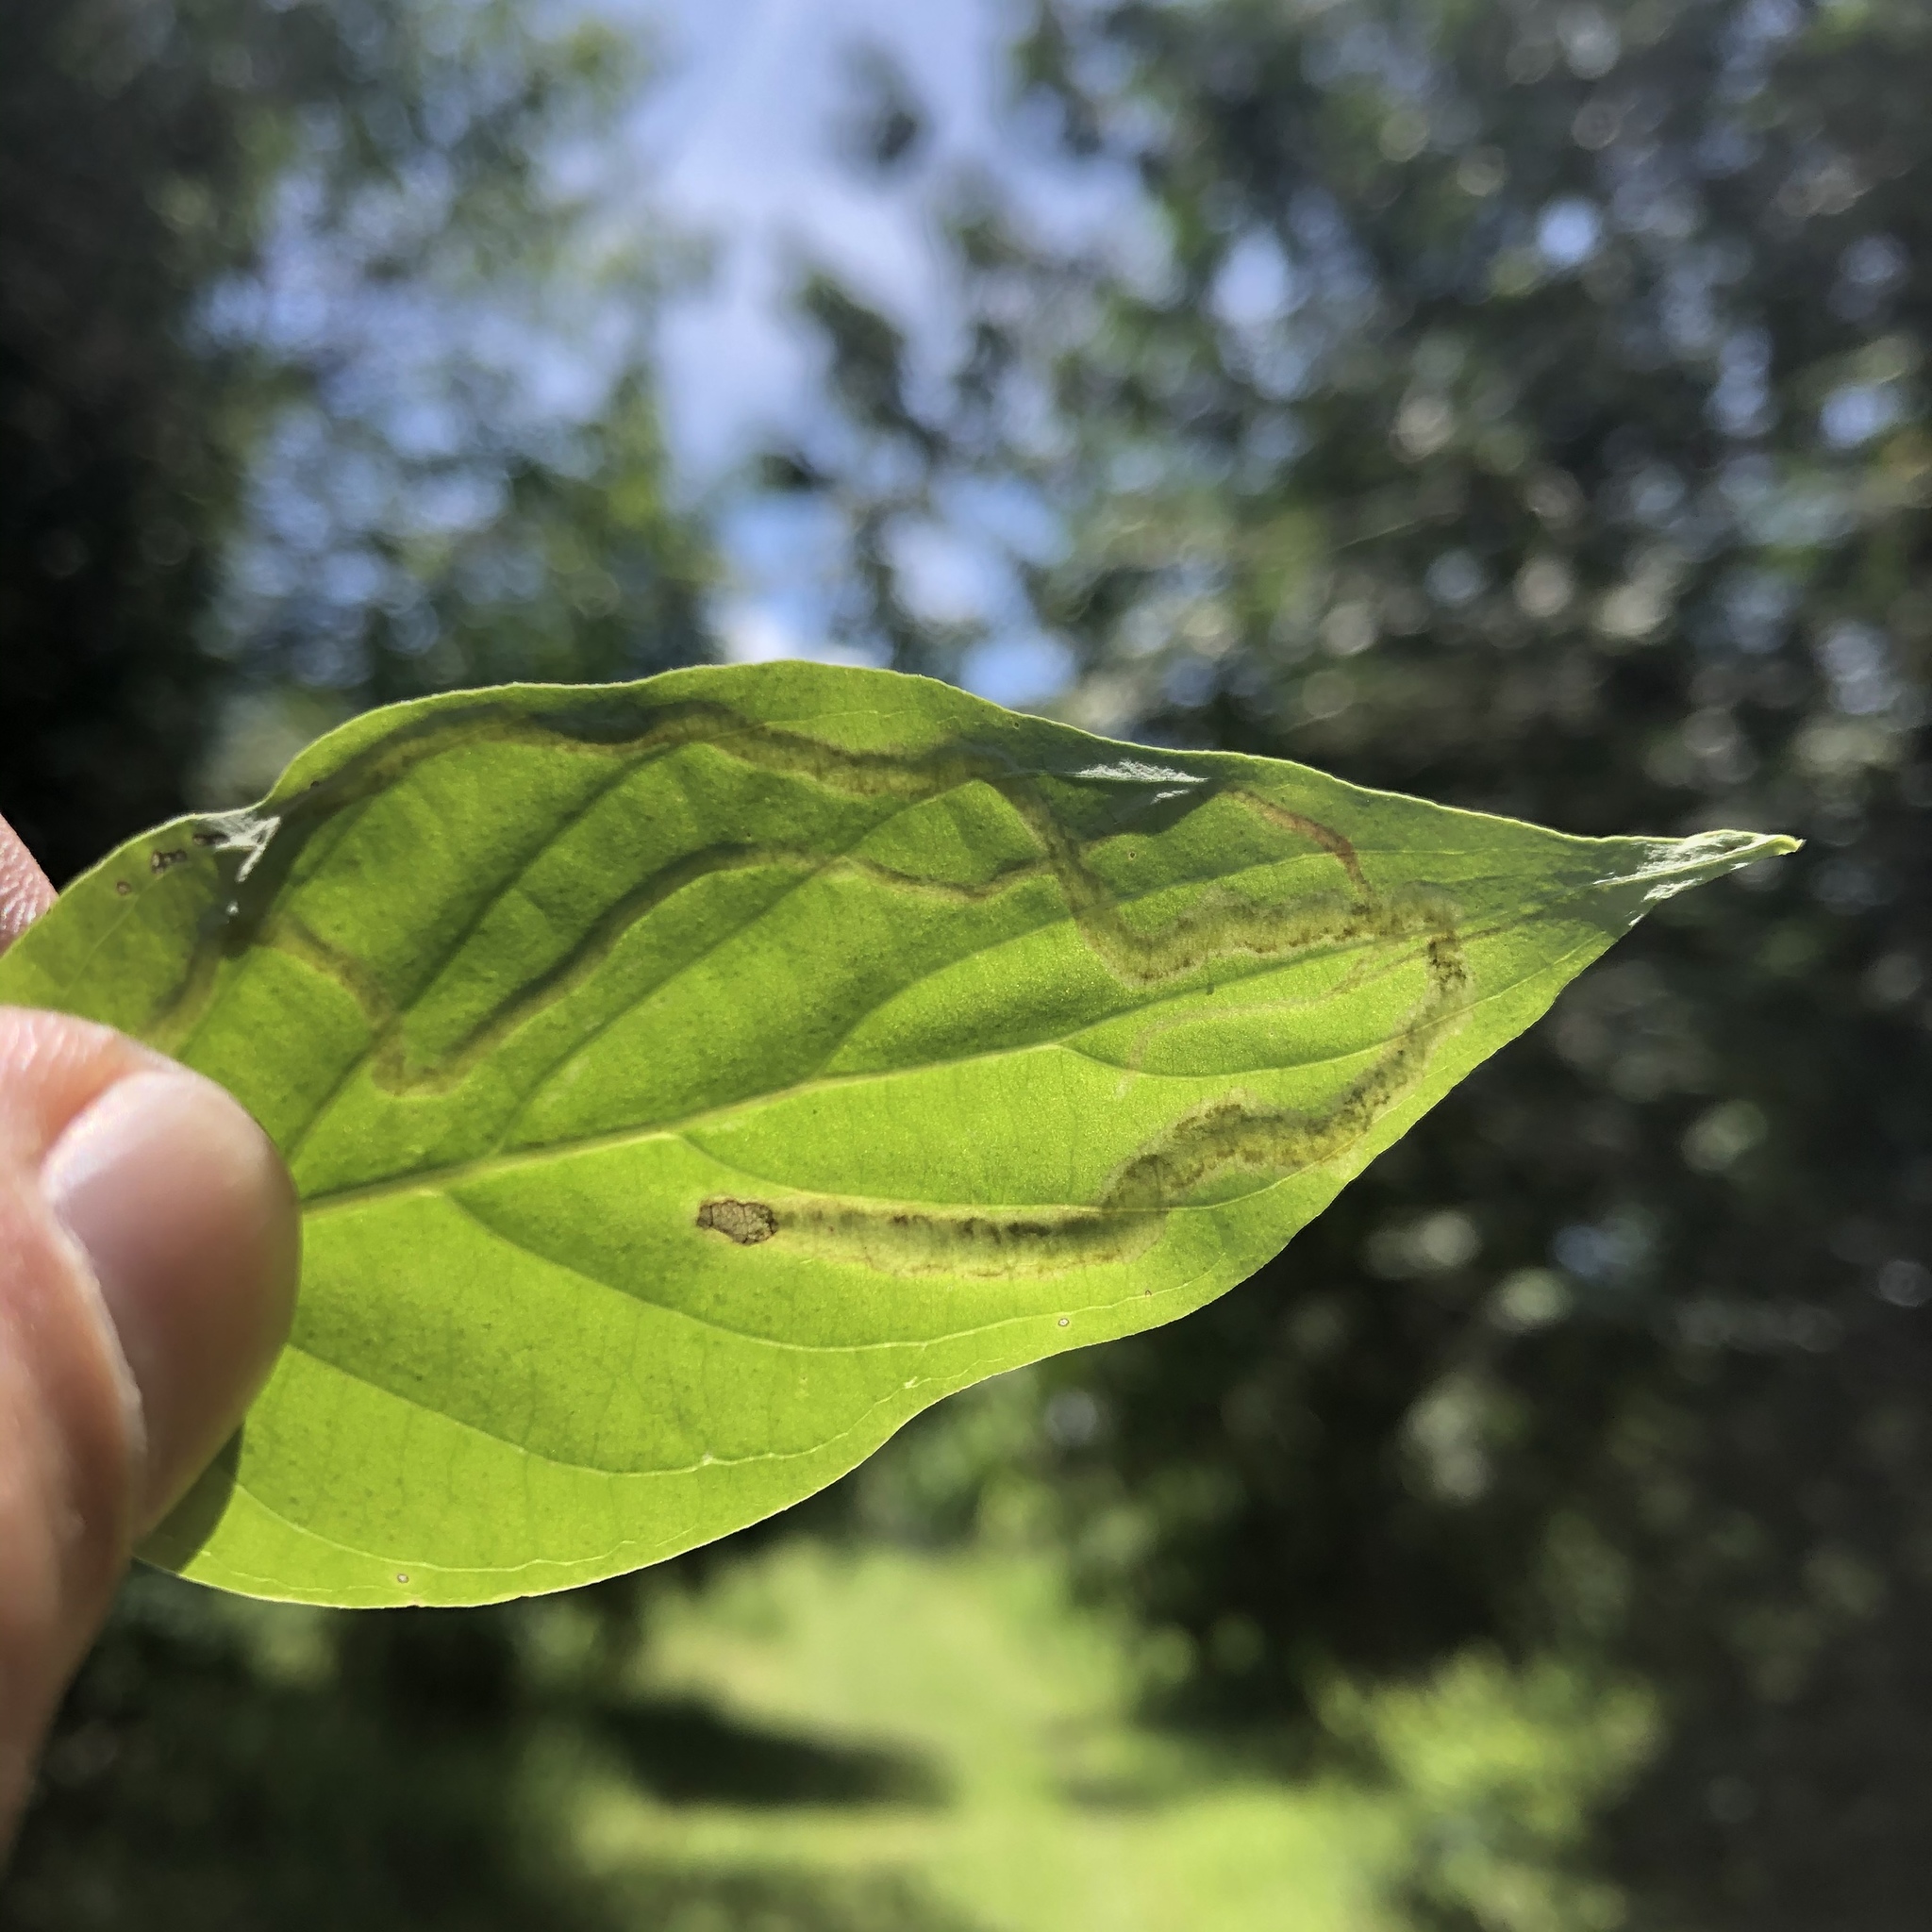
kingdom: Animalia
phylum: Arthropoda
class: Insecta
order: Diptera
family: Agromyzidae
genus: Phytomyza
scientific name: Phytomyza agromyzina
